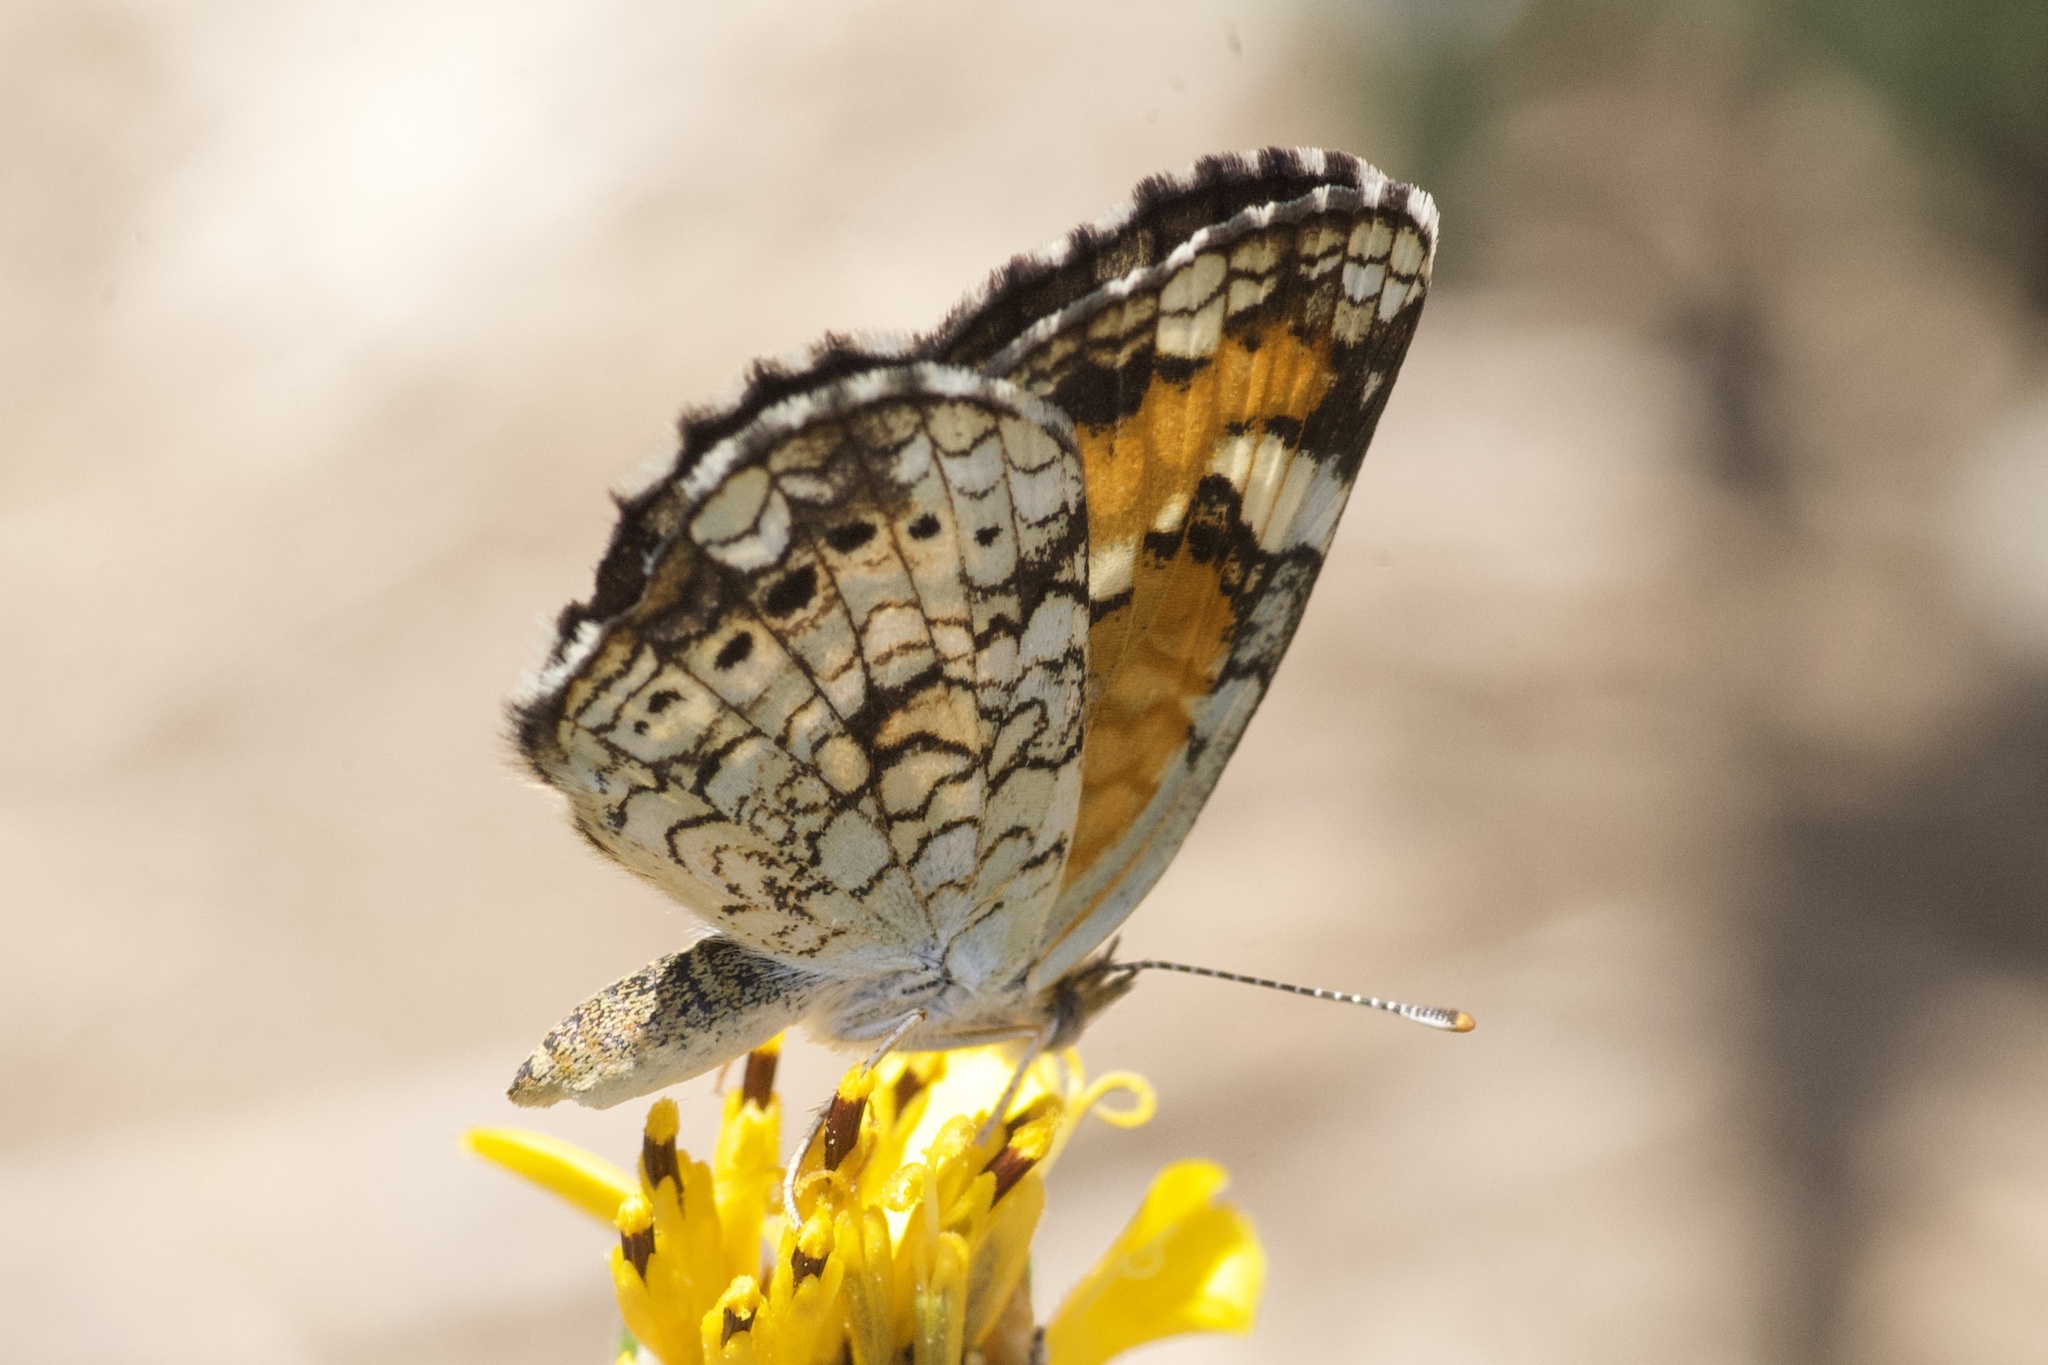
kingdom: Animalia
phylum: Arthropoda
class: Insecta
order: Lepidoptera
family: Nymphalidae
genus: Phyciodes
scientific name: Phyciodes phaon
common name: Phaon crescent
